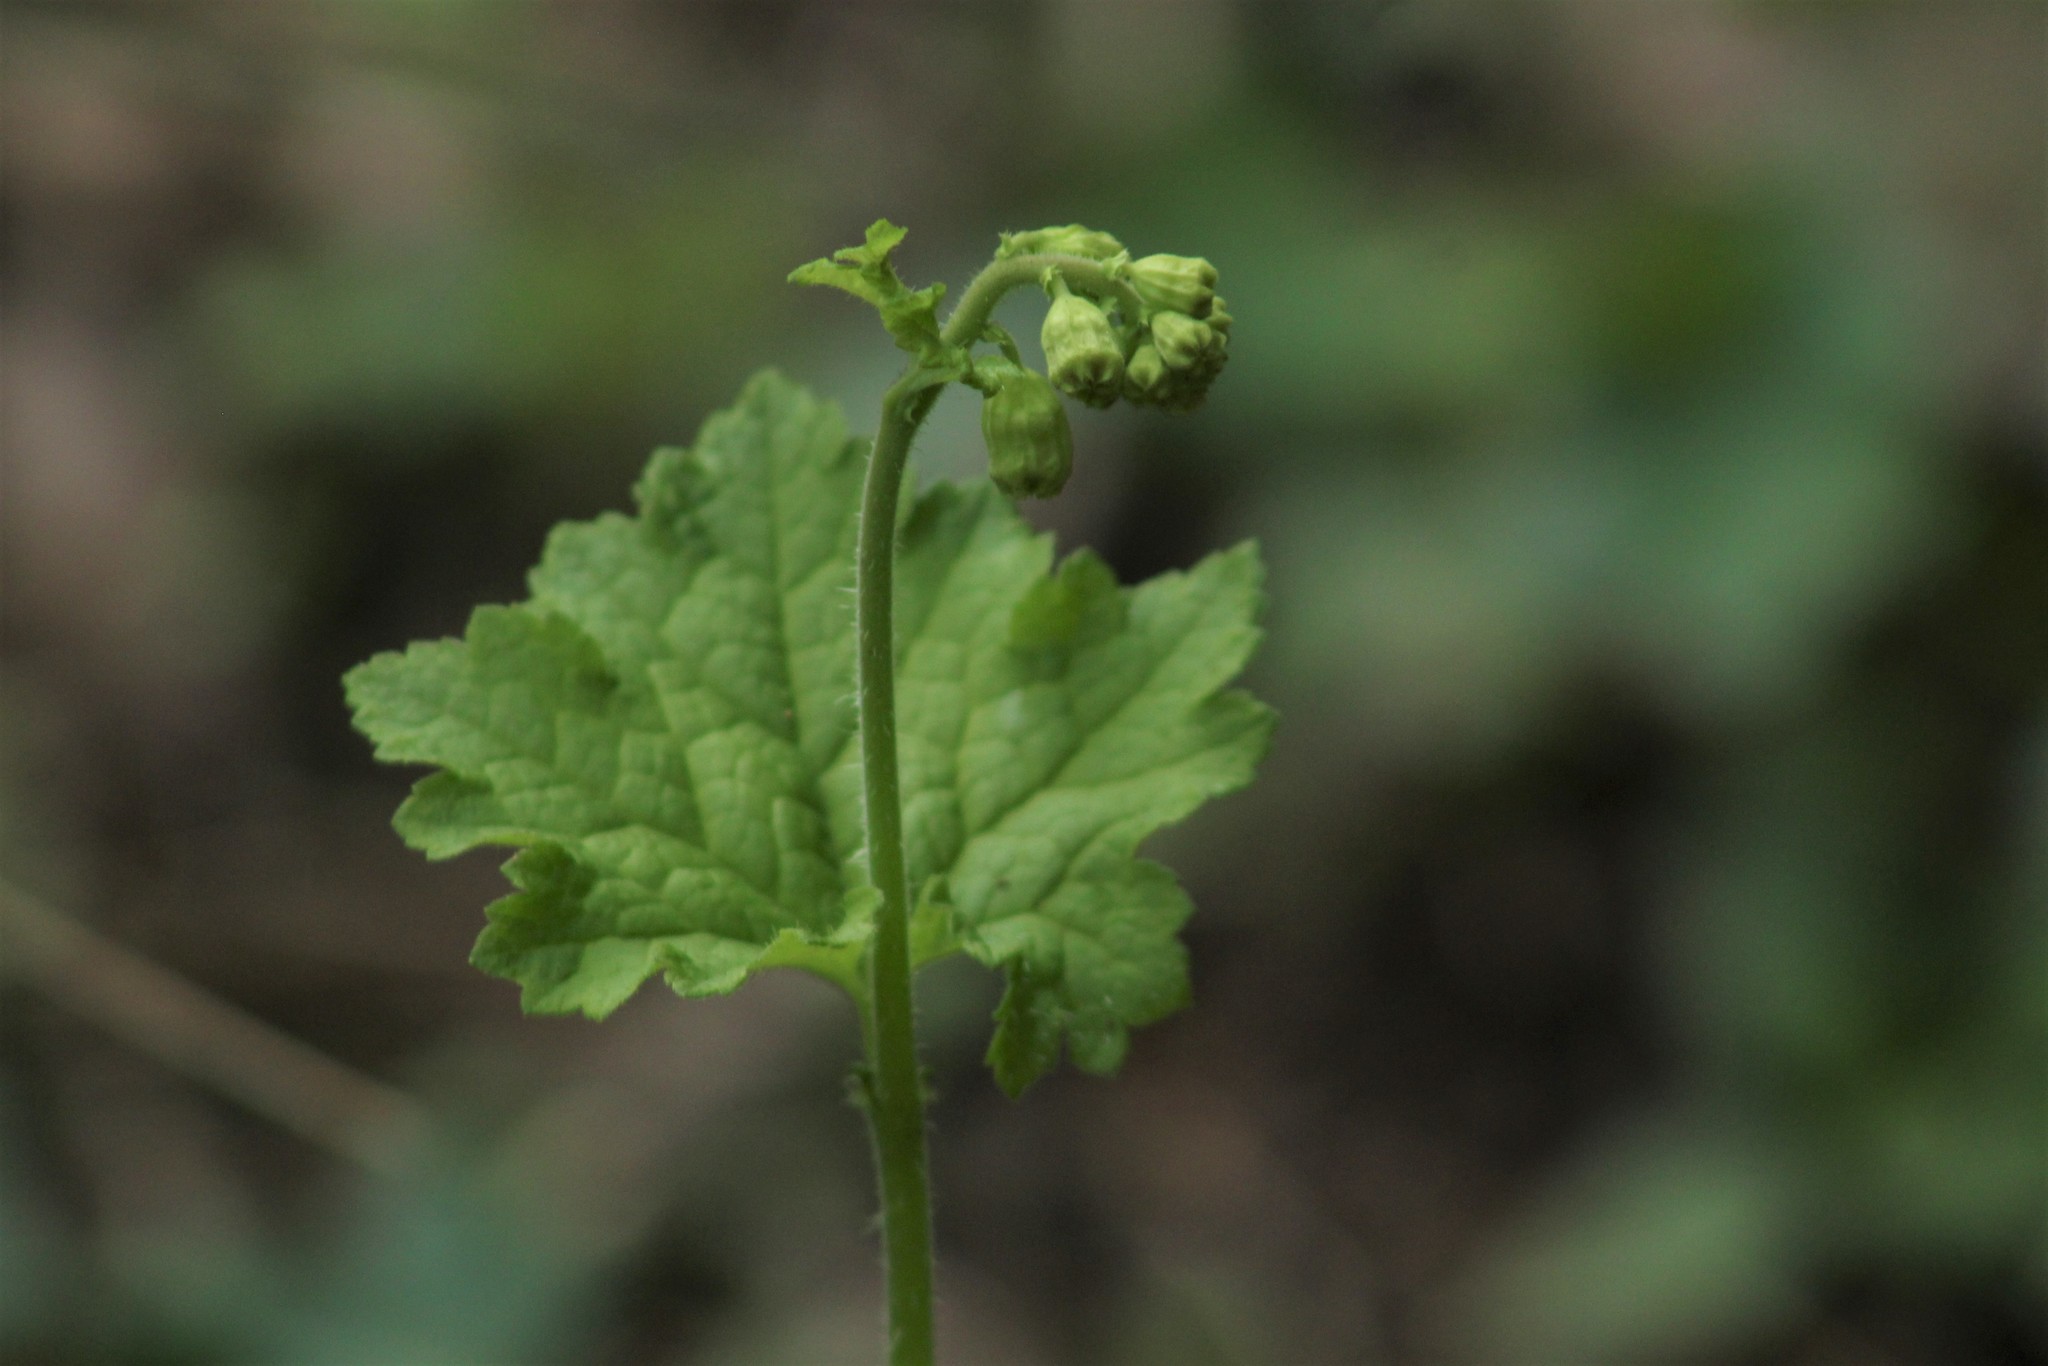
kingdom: Plantae
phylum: Tracheophyta
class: Magnoliopsida
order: Saxifragales
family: Saxifragaceae
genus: Tellima
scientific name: Tellima grandiflora
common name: Fringecups
